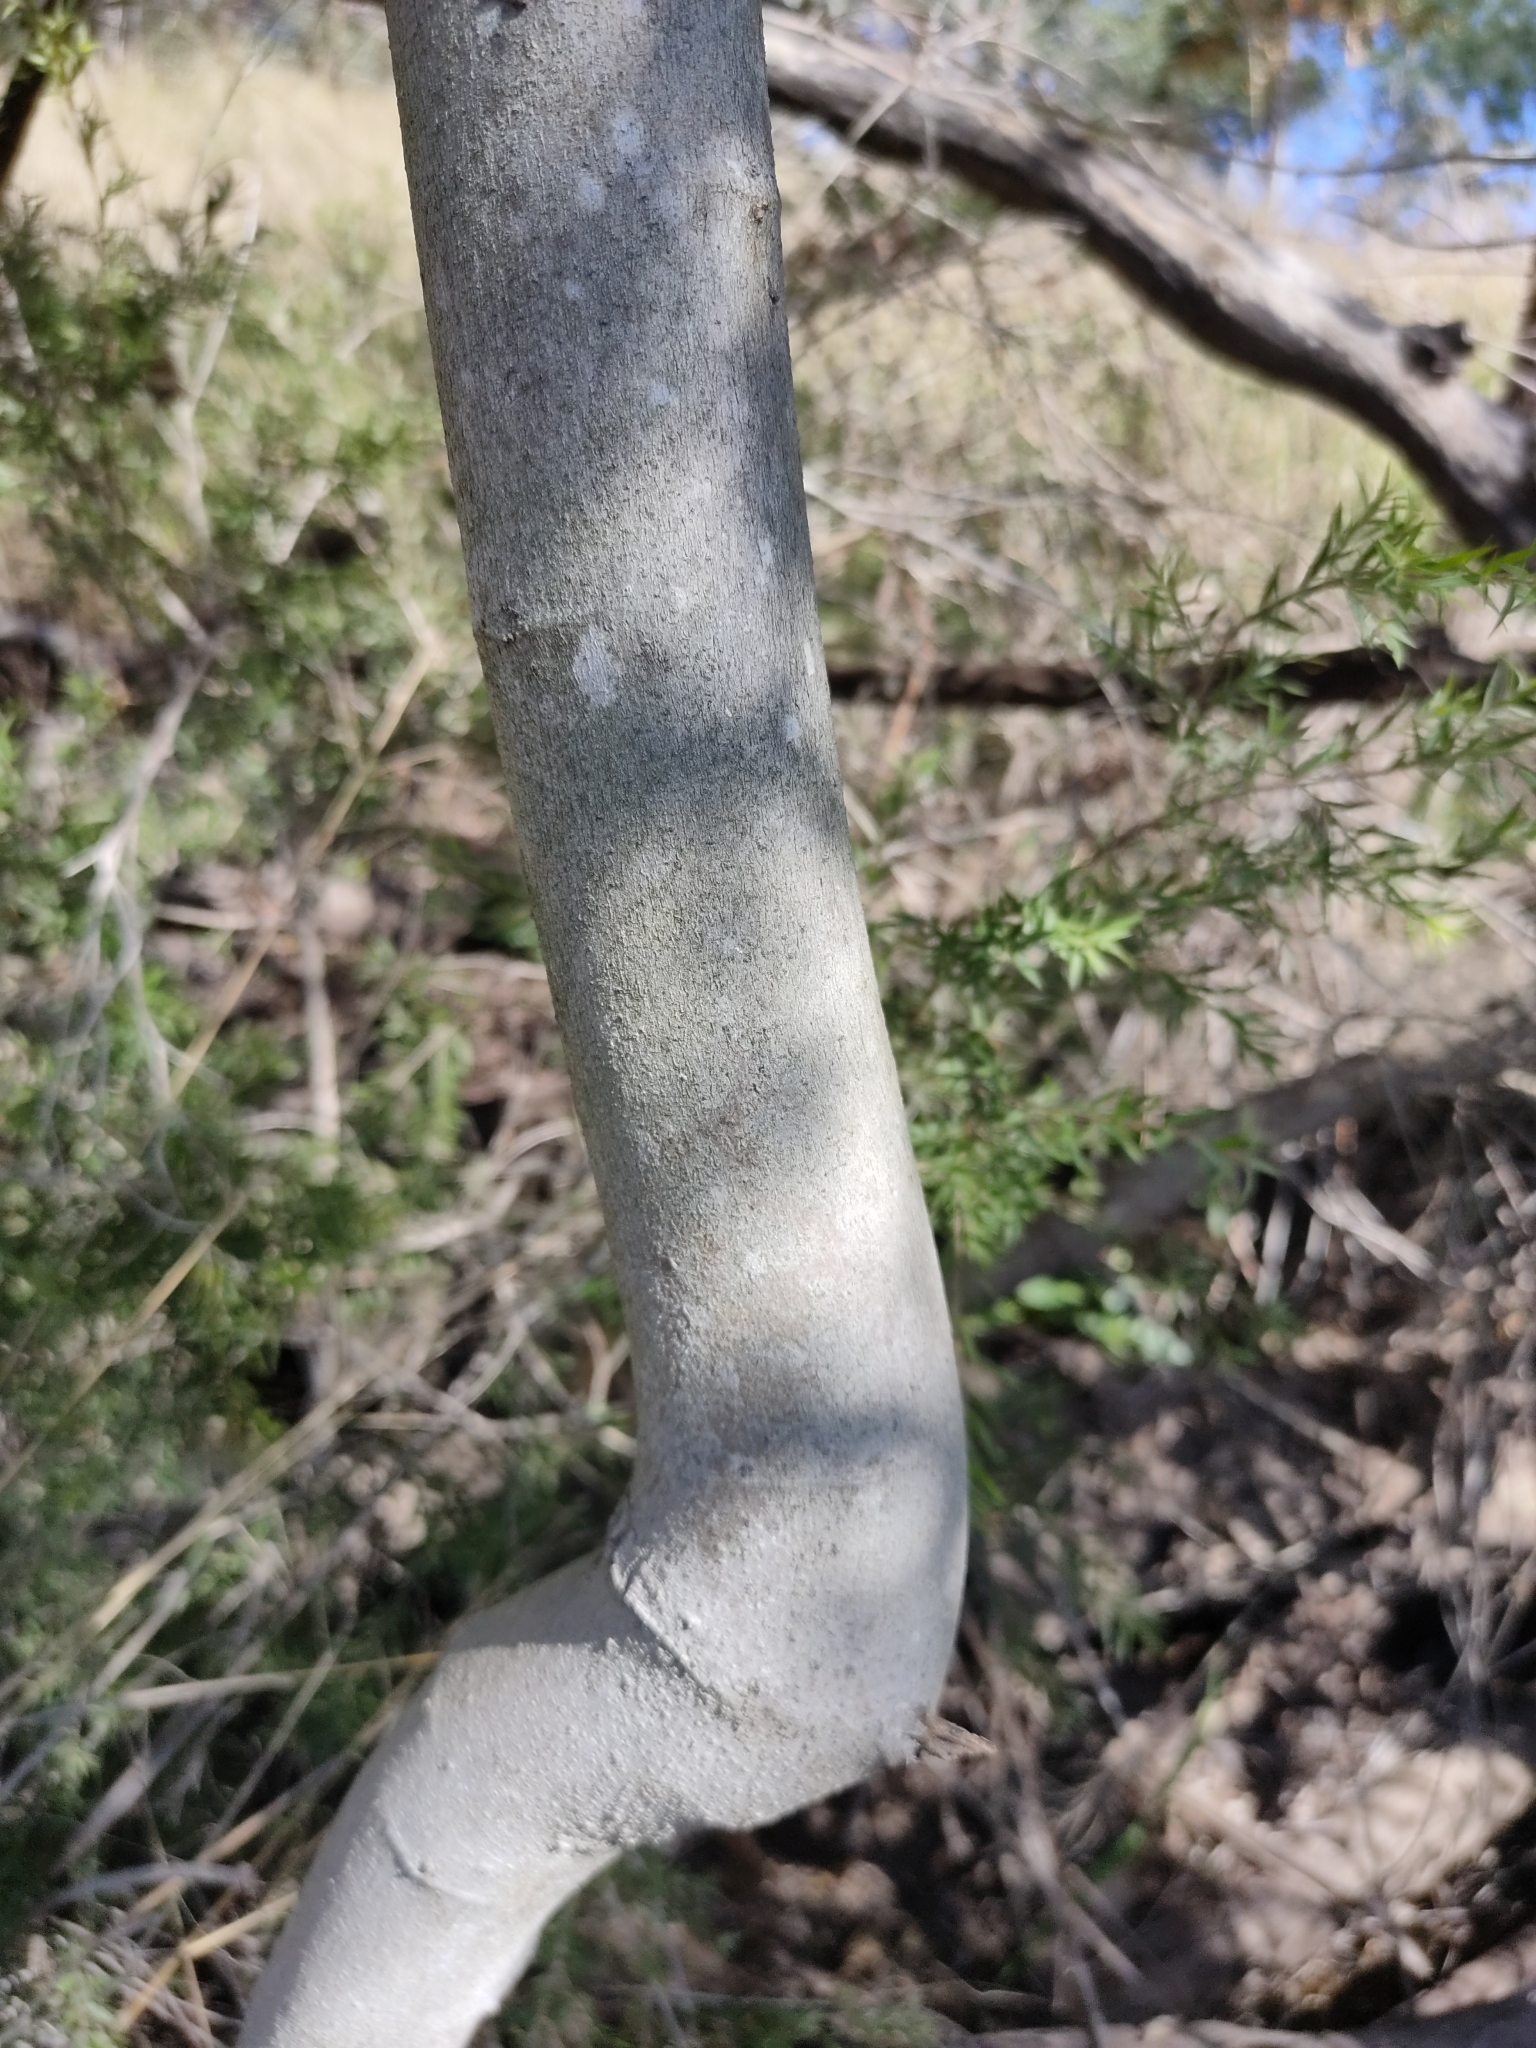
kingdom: Plantae
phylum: Tracheophyta
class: Magnoliopsida
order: Rosales
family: Moraceae
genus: Ficus
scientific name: Ficus opposita
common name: Figwood
